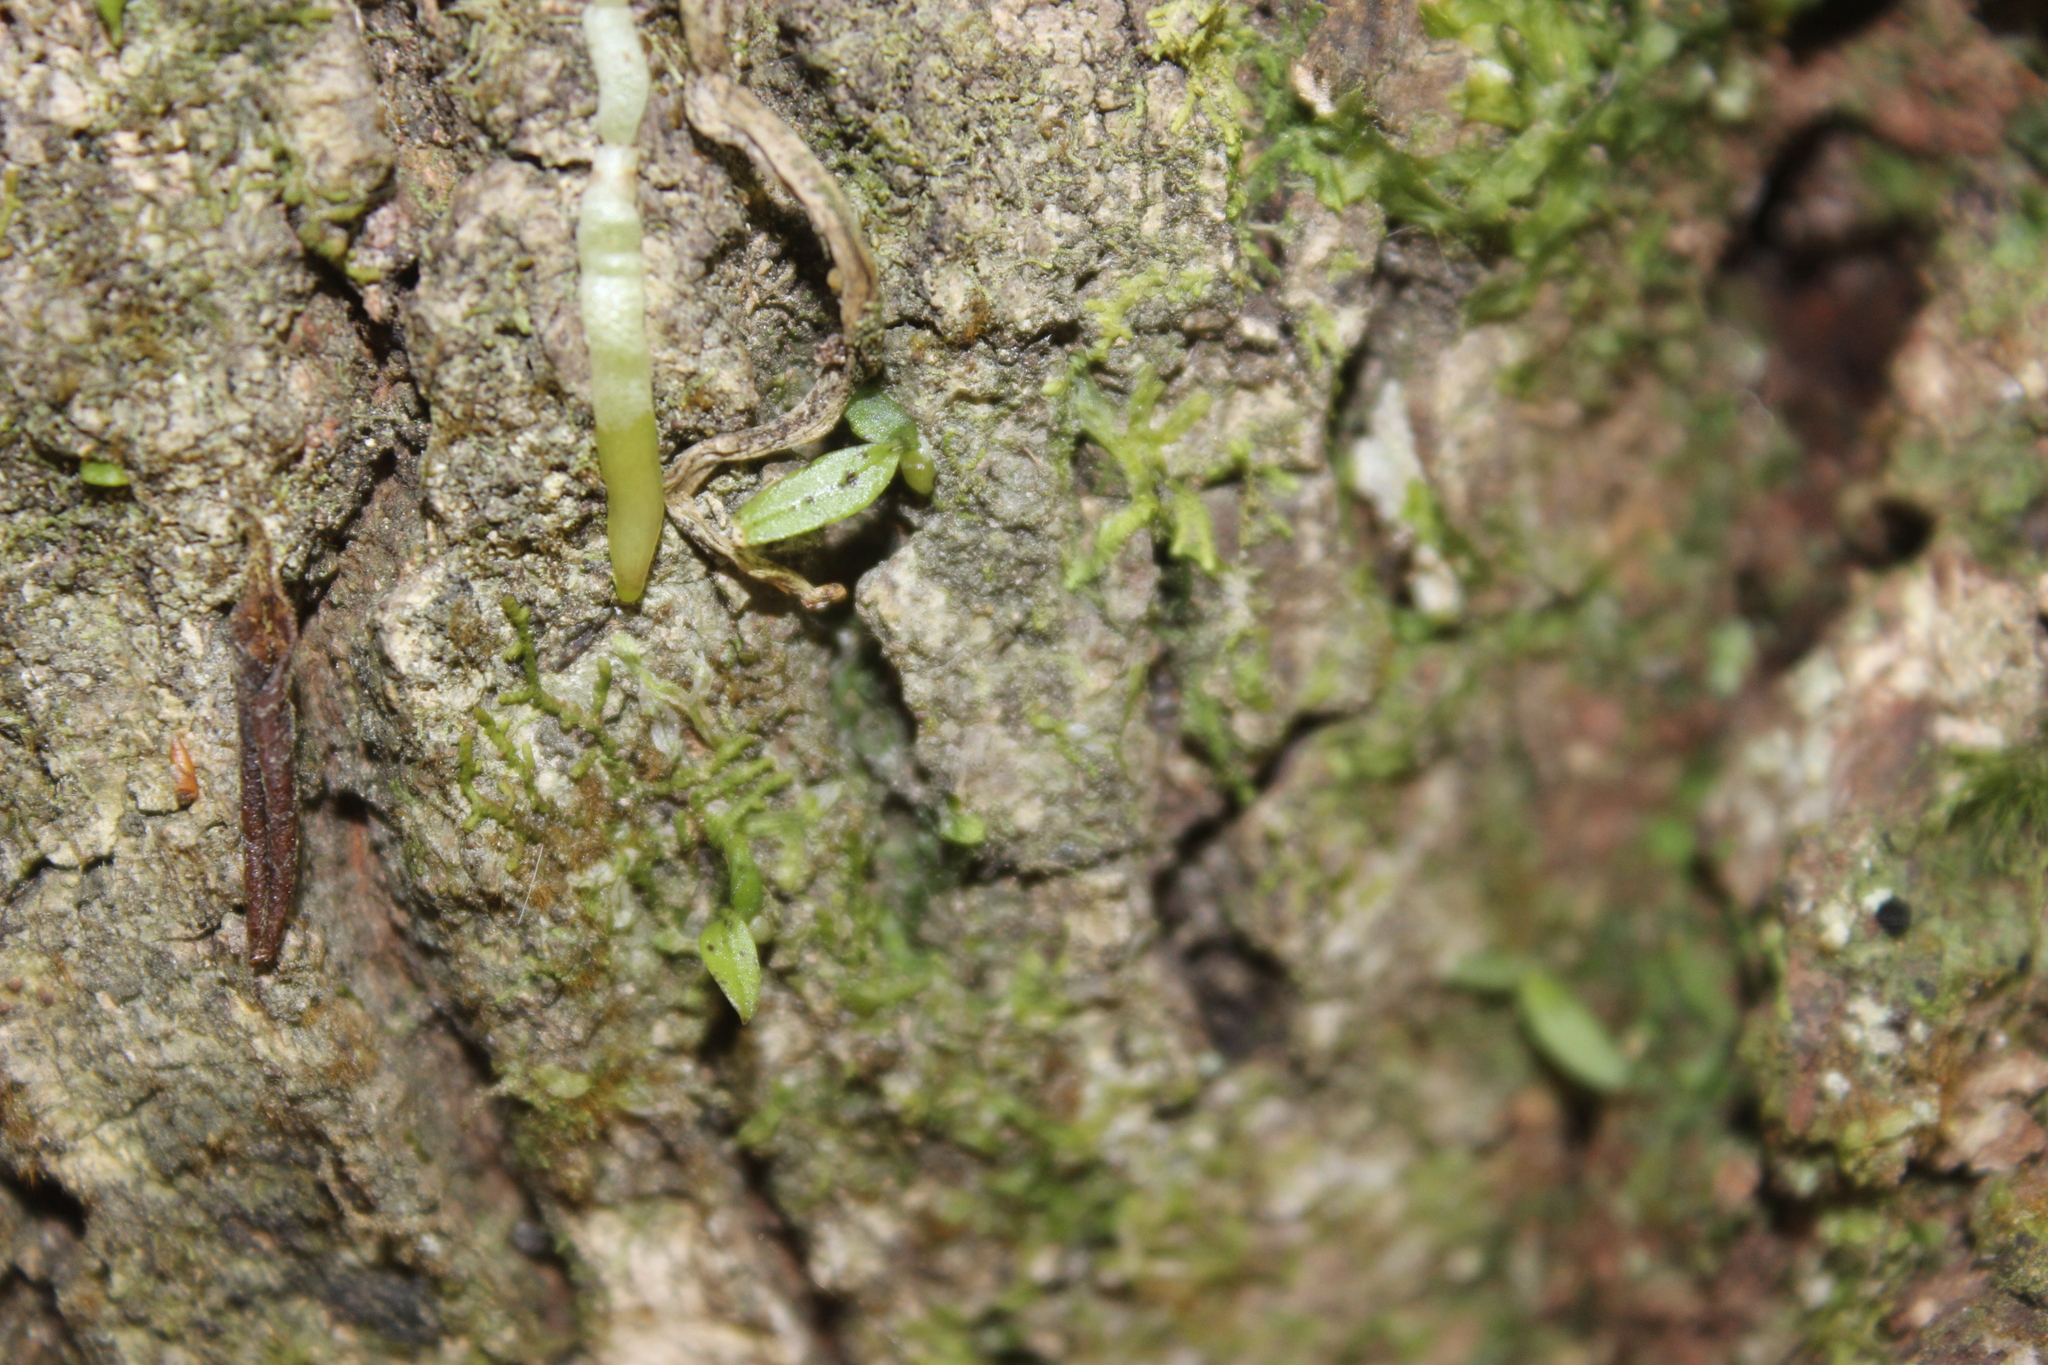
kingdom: Plantae
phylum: Tracheophyta
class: Liliopsida
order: Asparagales
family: Orchidaceae
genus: Drymoanthus
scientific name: Drymoanthus flavus
